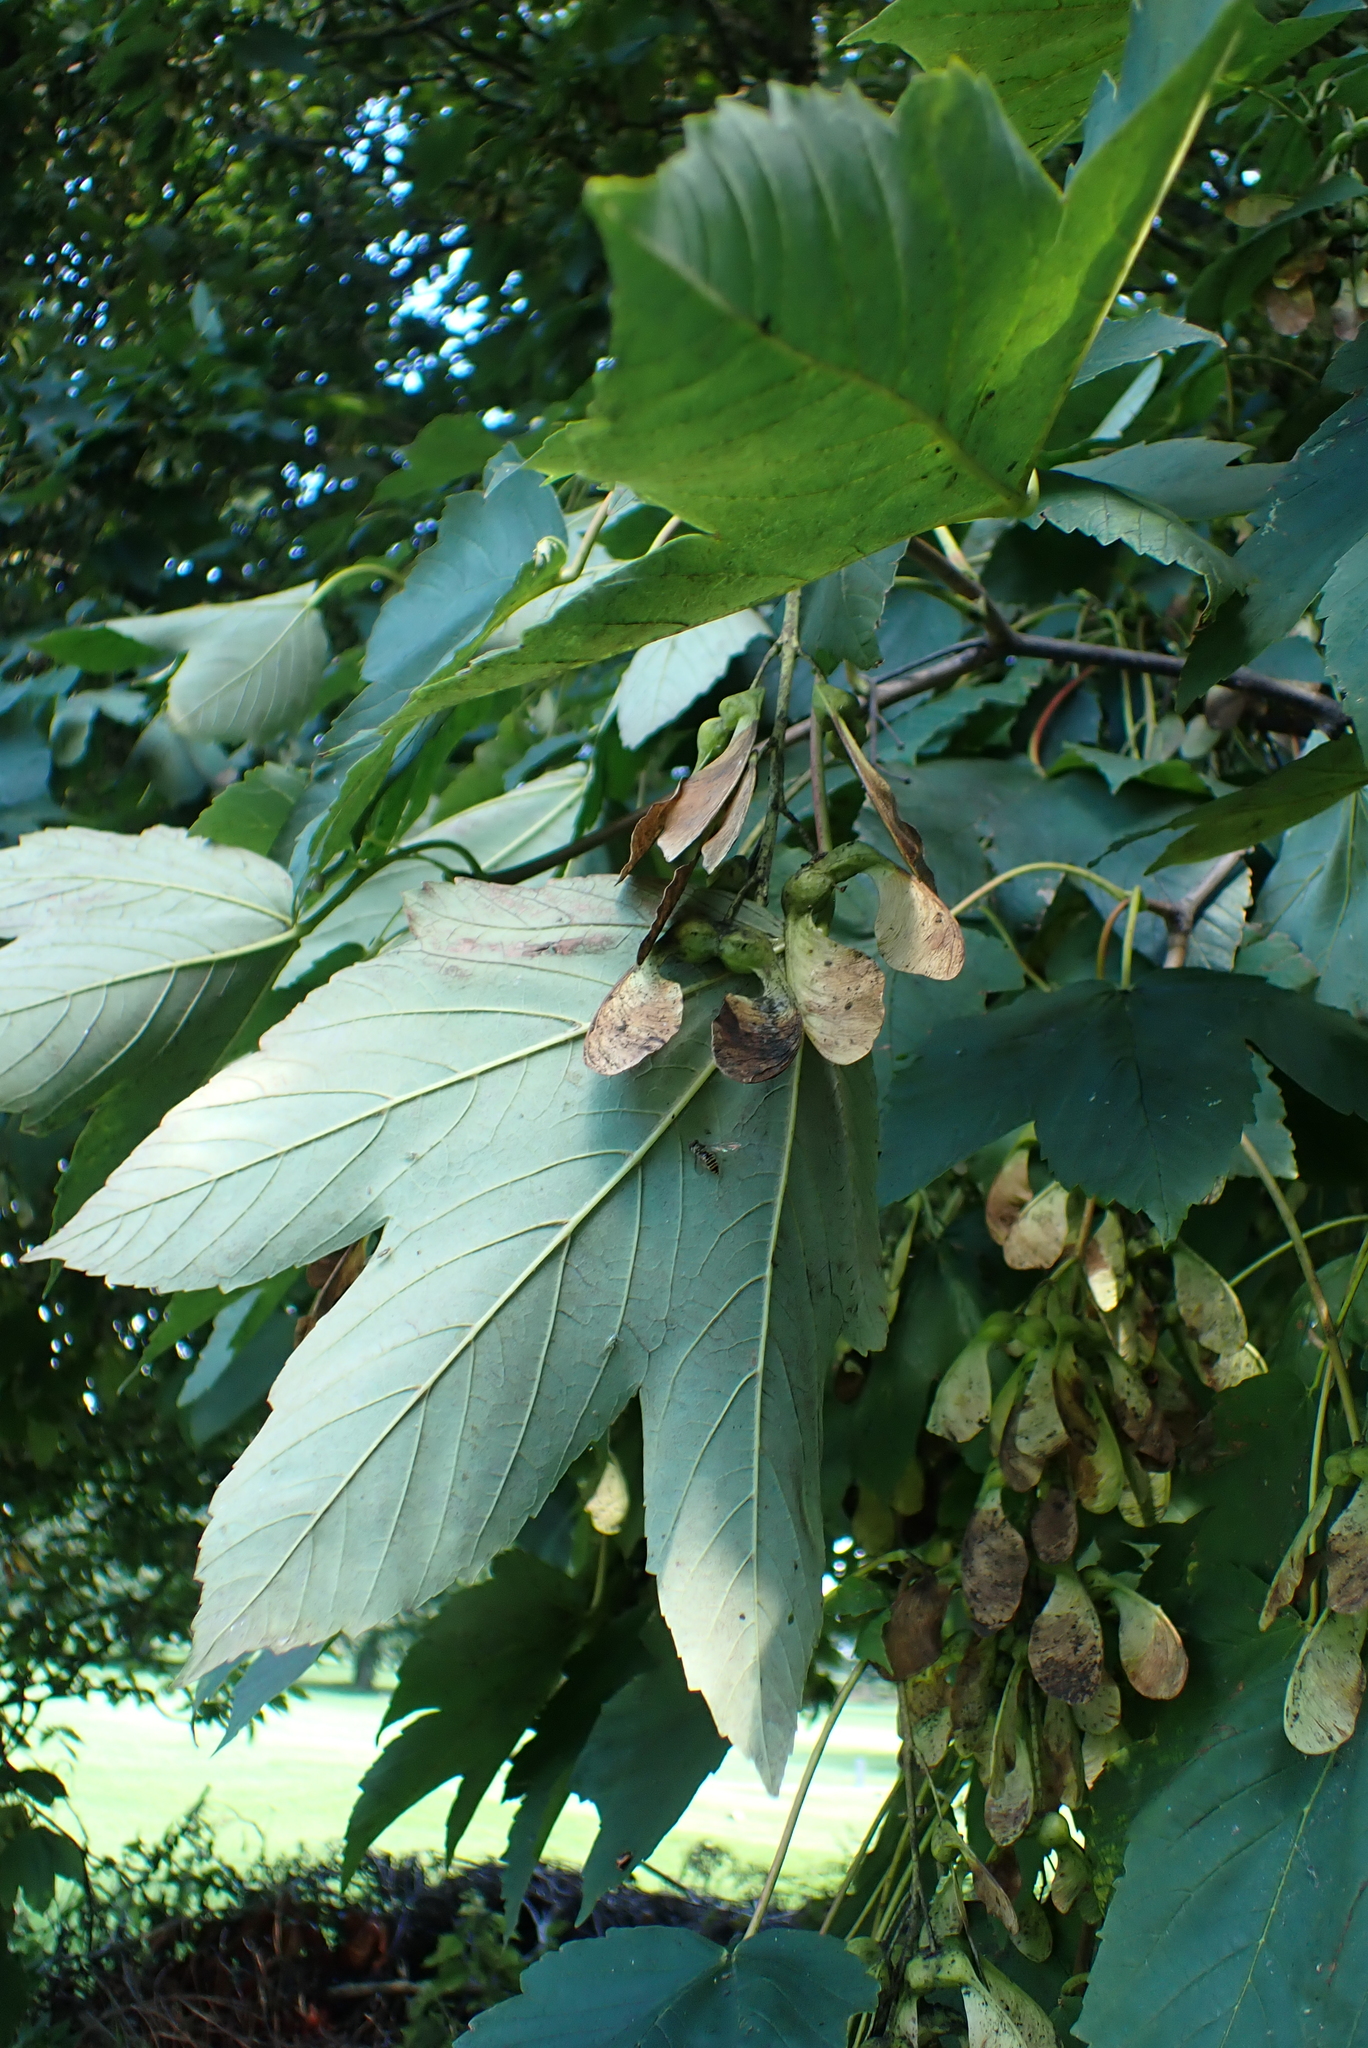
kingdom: Plantae
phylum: Tracheophyta
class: Magnoliopsida
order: Sapindales
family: Sapindaceae
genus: Acer
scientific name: Acer pseudoplatanus
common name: Sycamore
